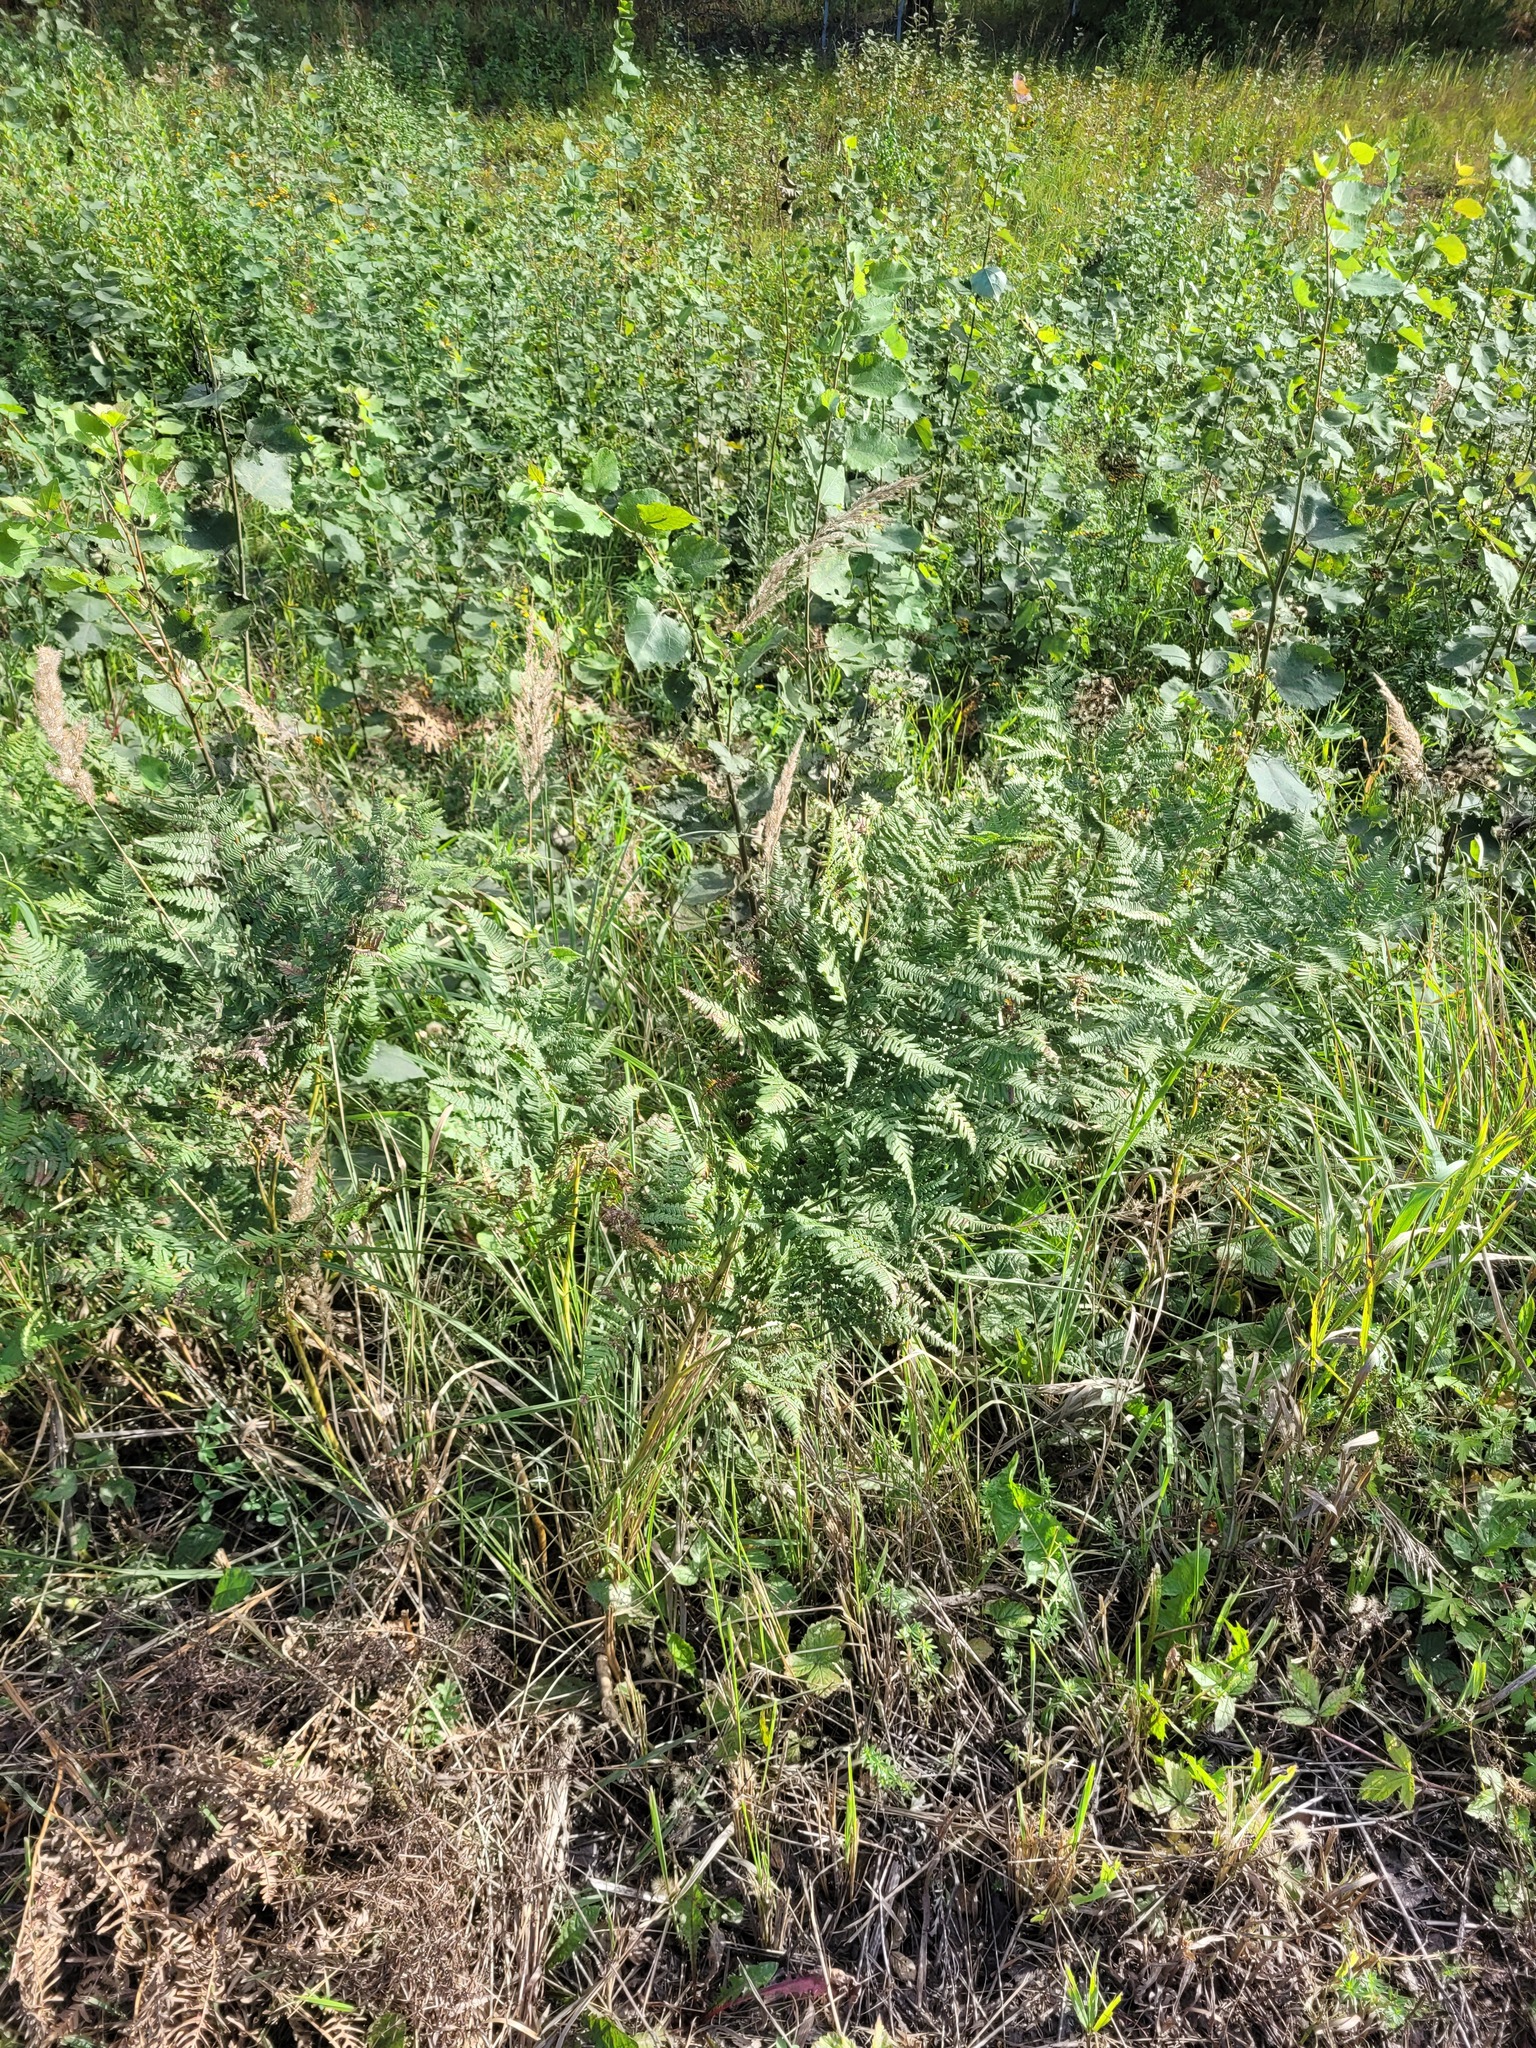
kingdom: Plantae
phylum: Tracheophyta
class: Polypodiopsida
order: Polypodiales
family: Dennstaedtiaceae
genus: Pteridium
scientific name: Pteridium aquilinum
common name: Bracken
